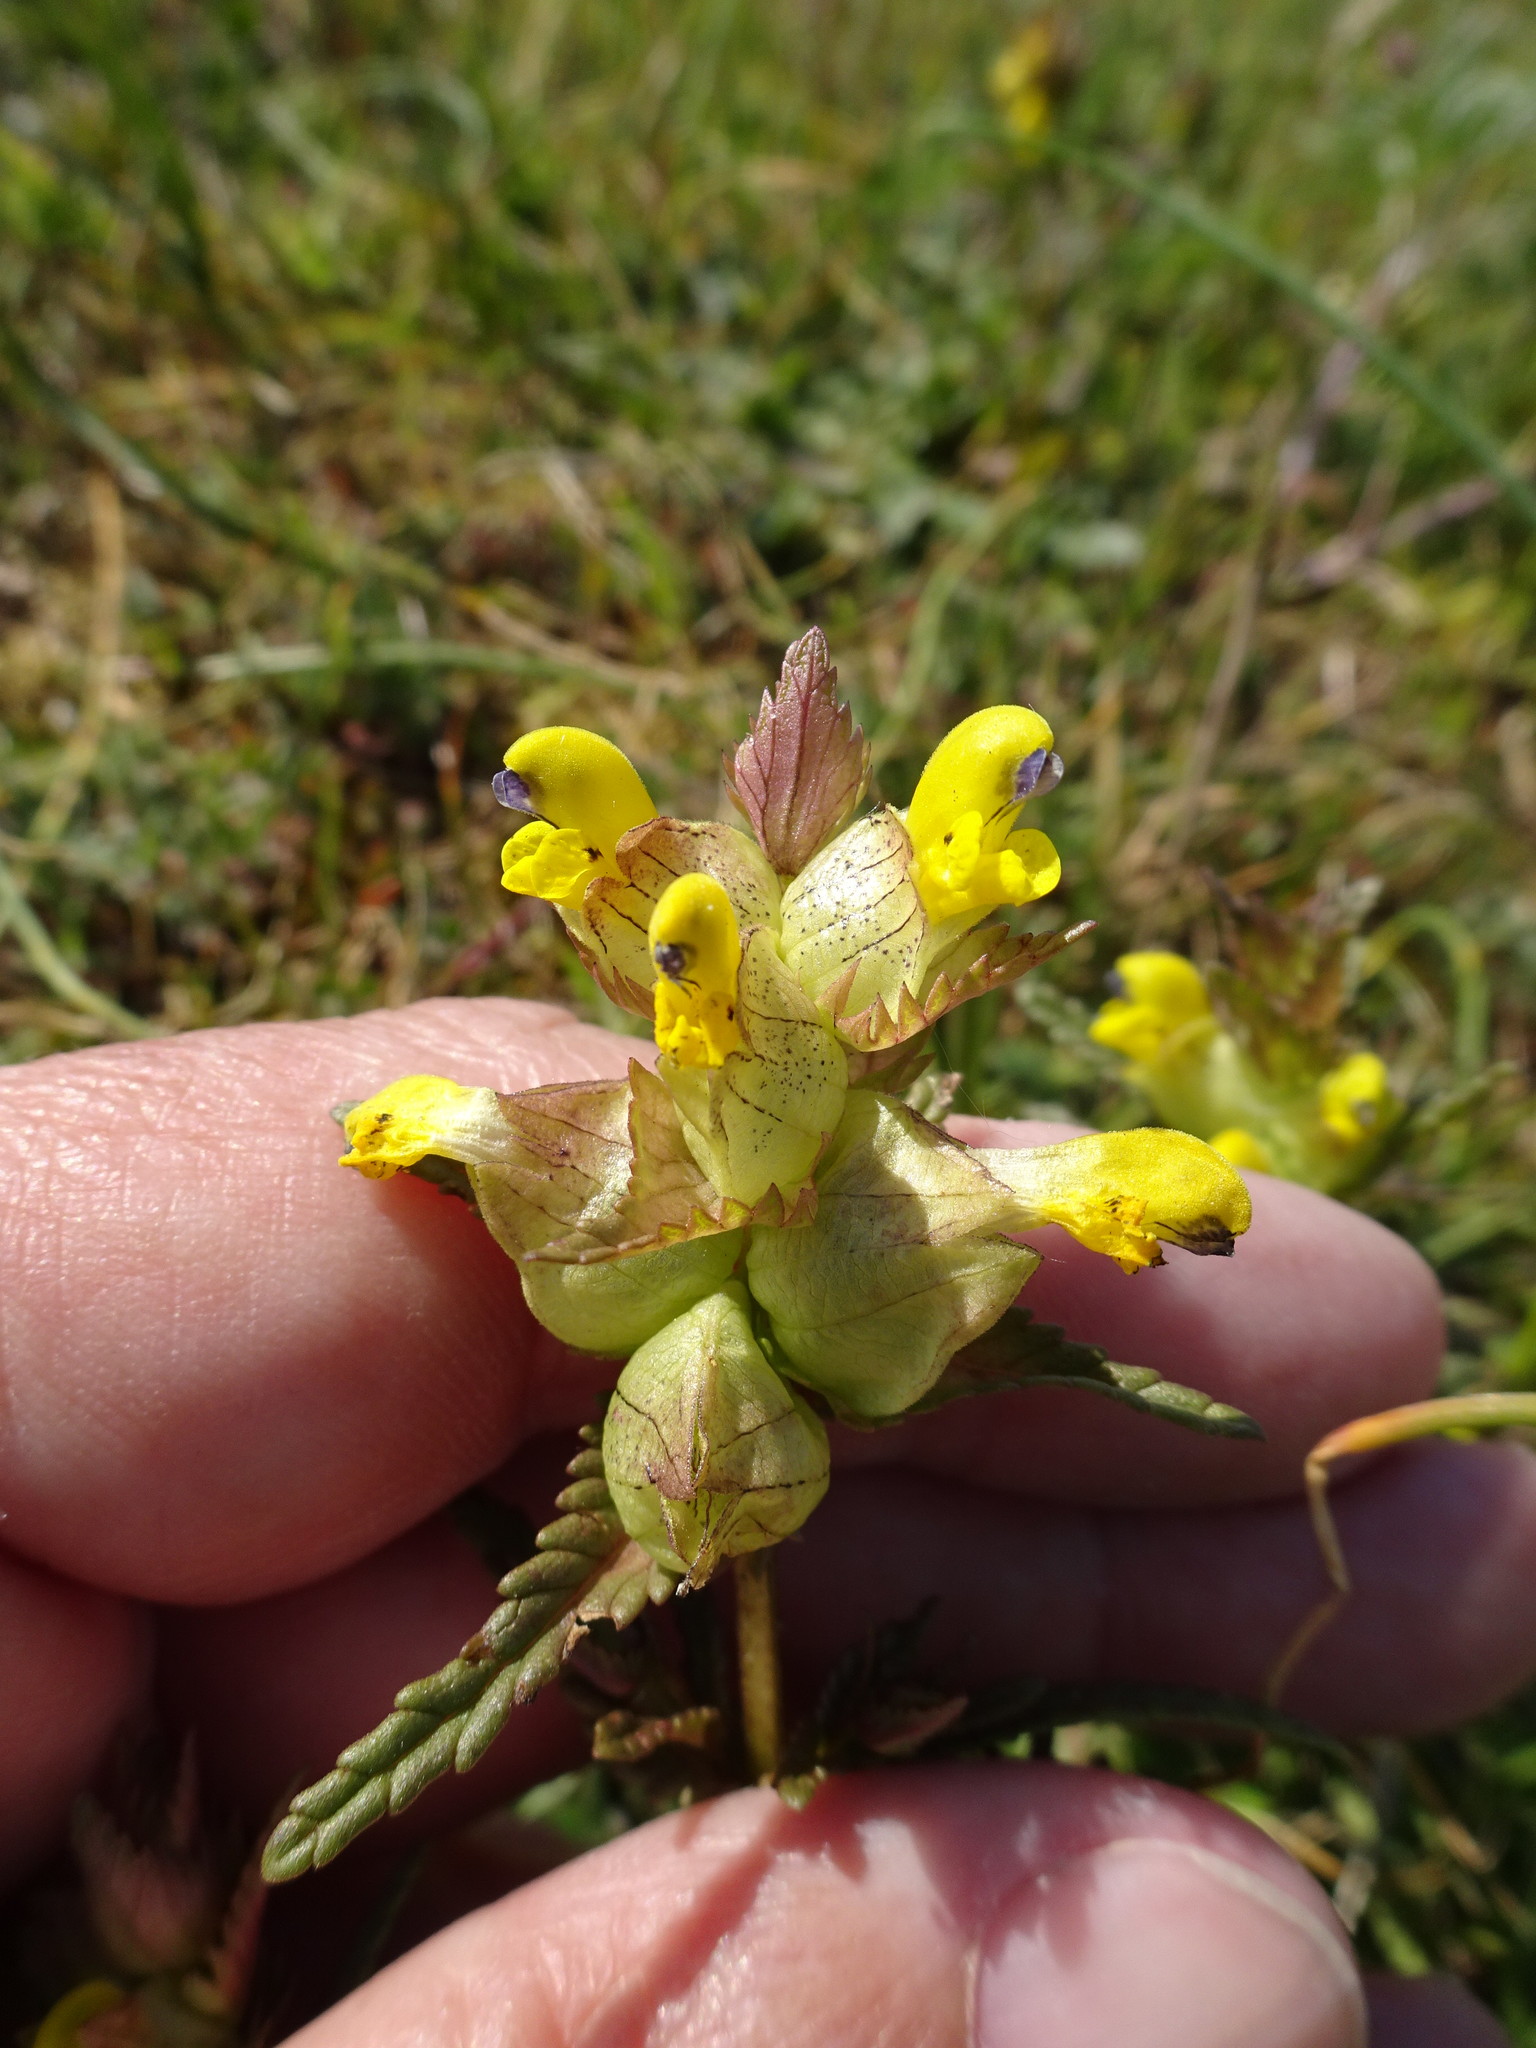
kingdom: Plantae
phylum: Tracheophyta
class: Magnoliopsida
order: Lamiales
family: Orobanchaceae
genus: Rhinanthus
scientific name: Rhinanthus minor
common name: Yellow-rattle
